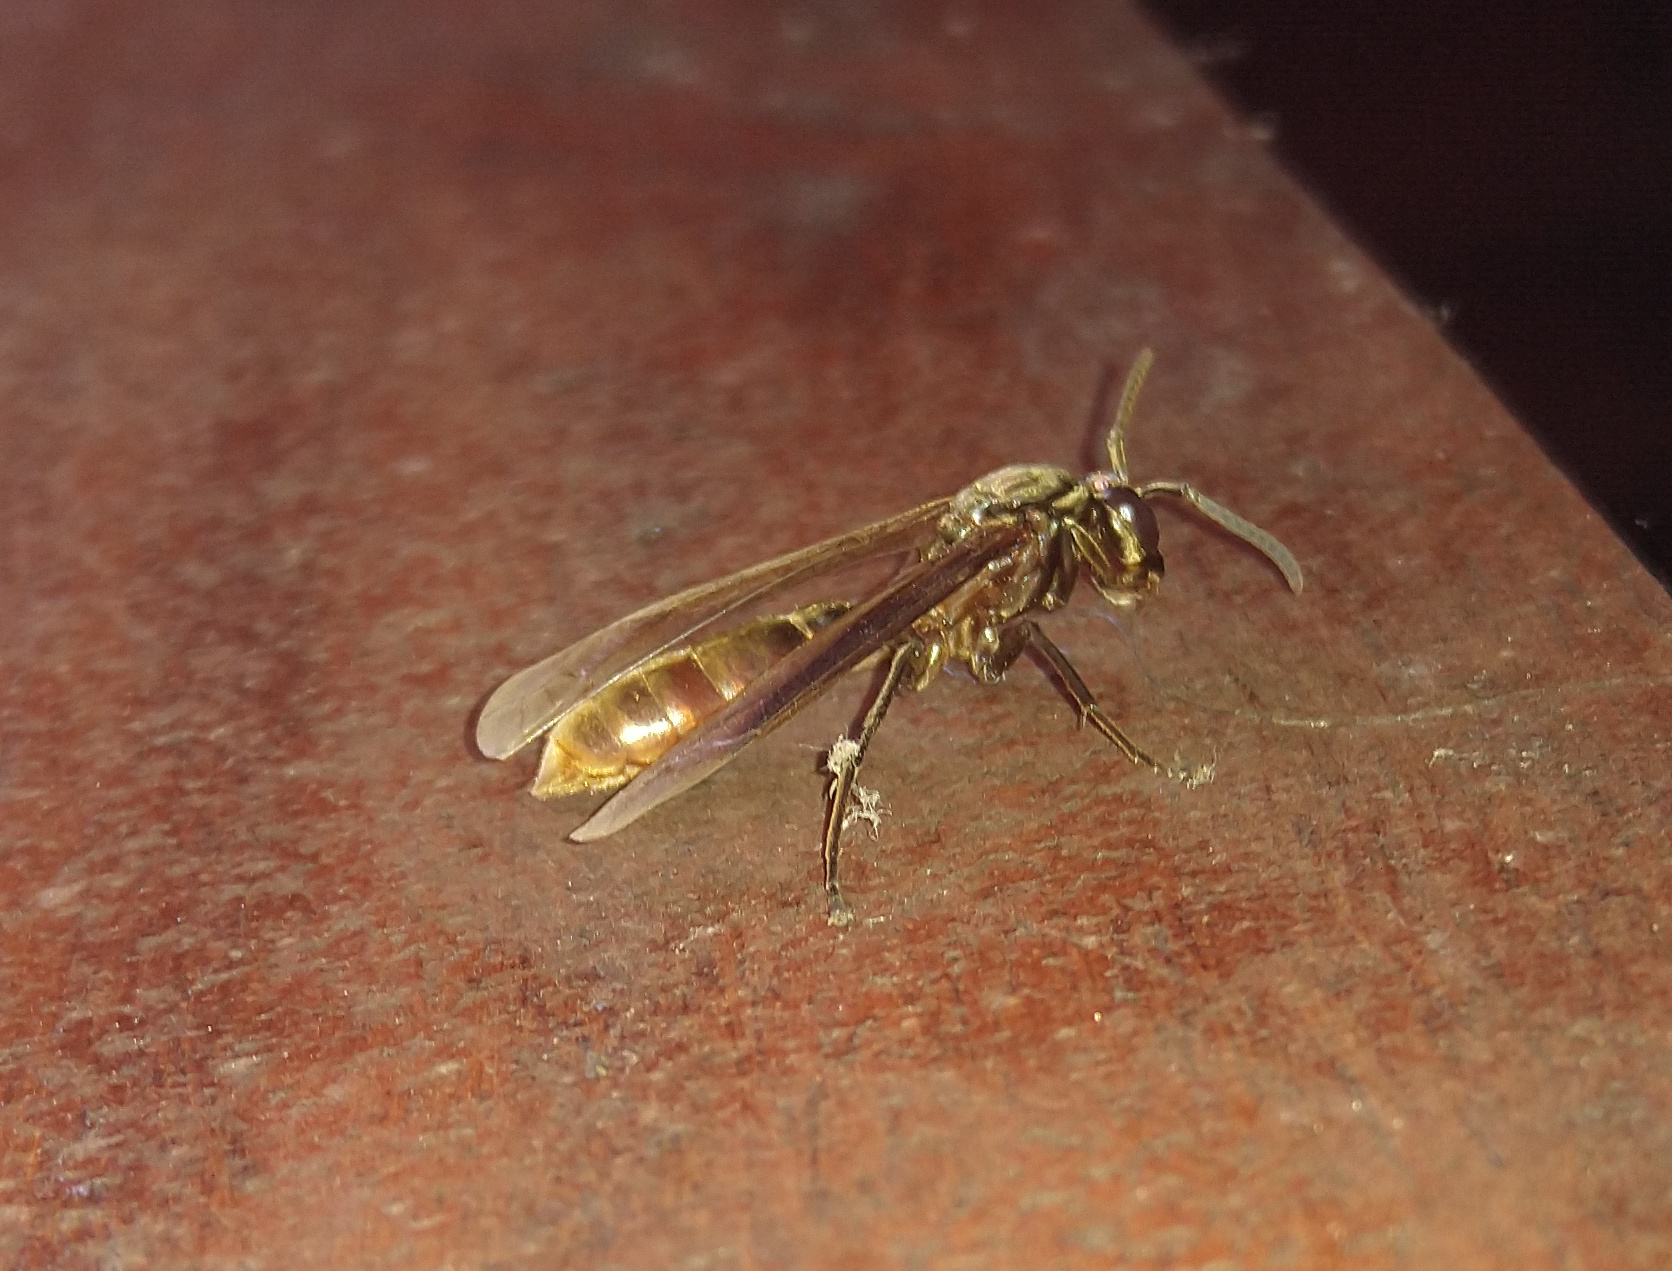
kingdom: Animalia
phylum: Arthropoda
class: Insecta
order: Hymenoptera
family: Vespidae
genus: Apoica
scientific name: Apoica thoracica
